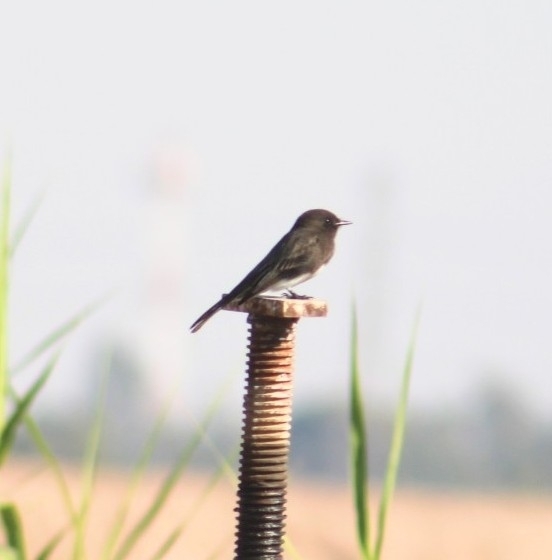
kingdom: Animalia
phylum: Chordata
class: Aves
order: Passeriformes
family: Tyrannidae
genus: Sayornis
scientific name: Sayornis nigricans
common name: Black phoebe
